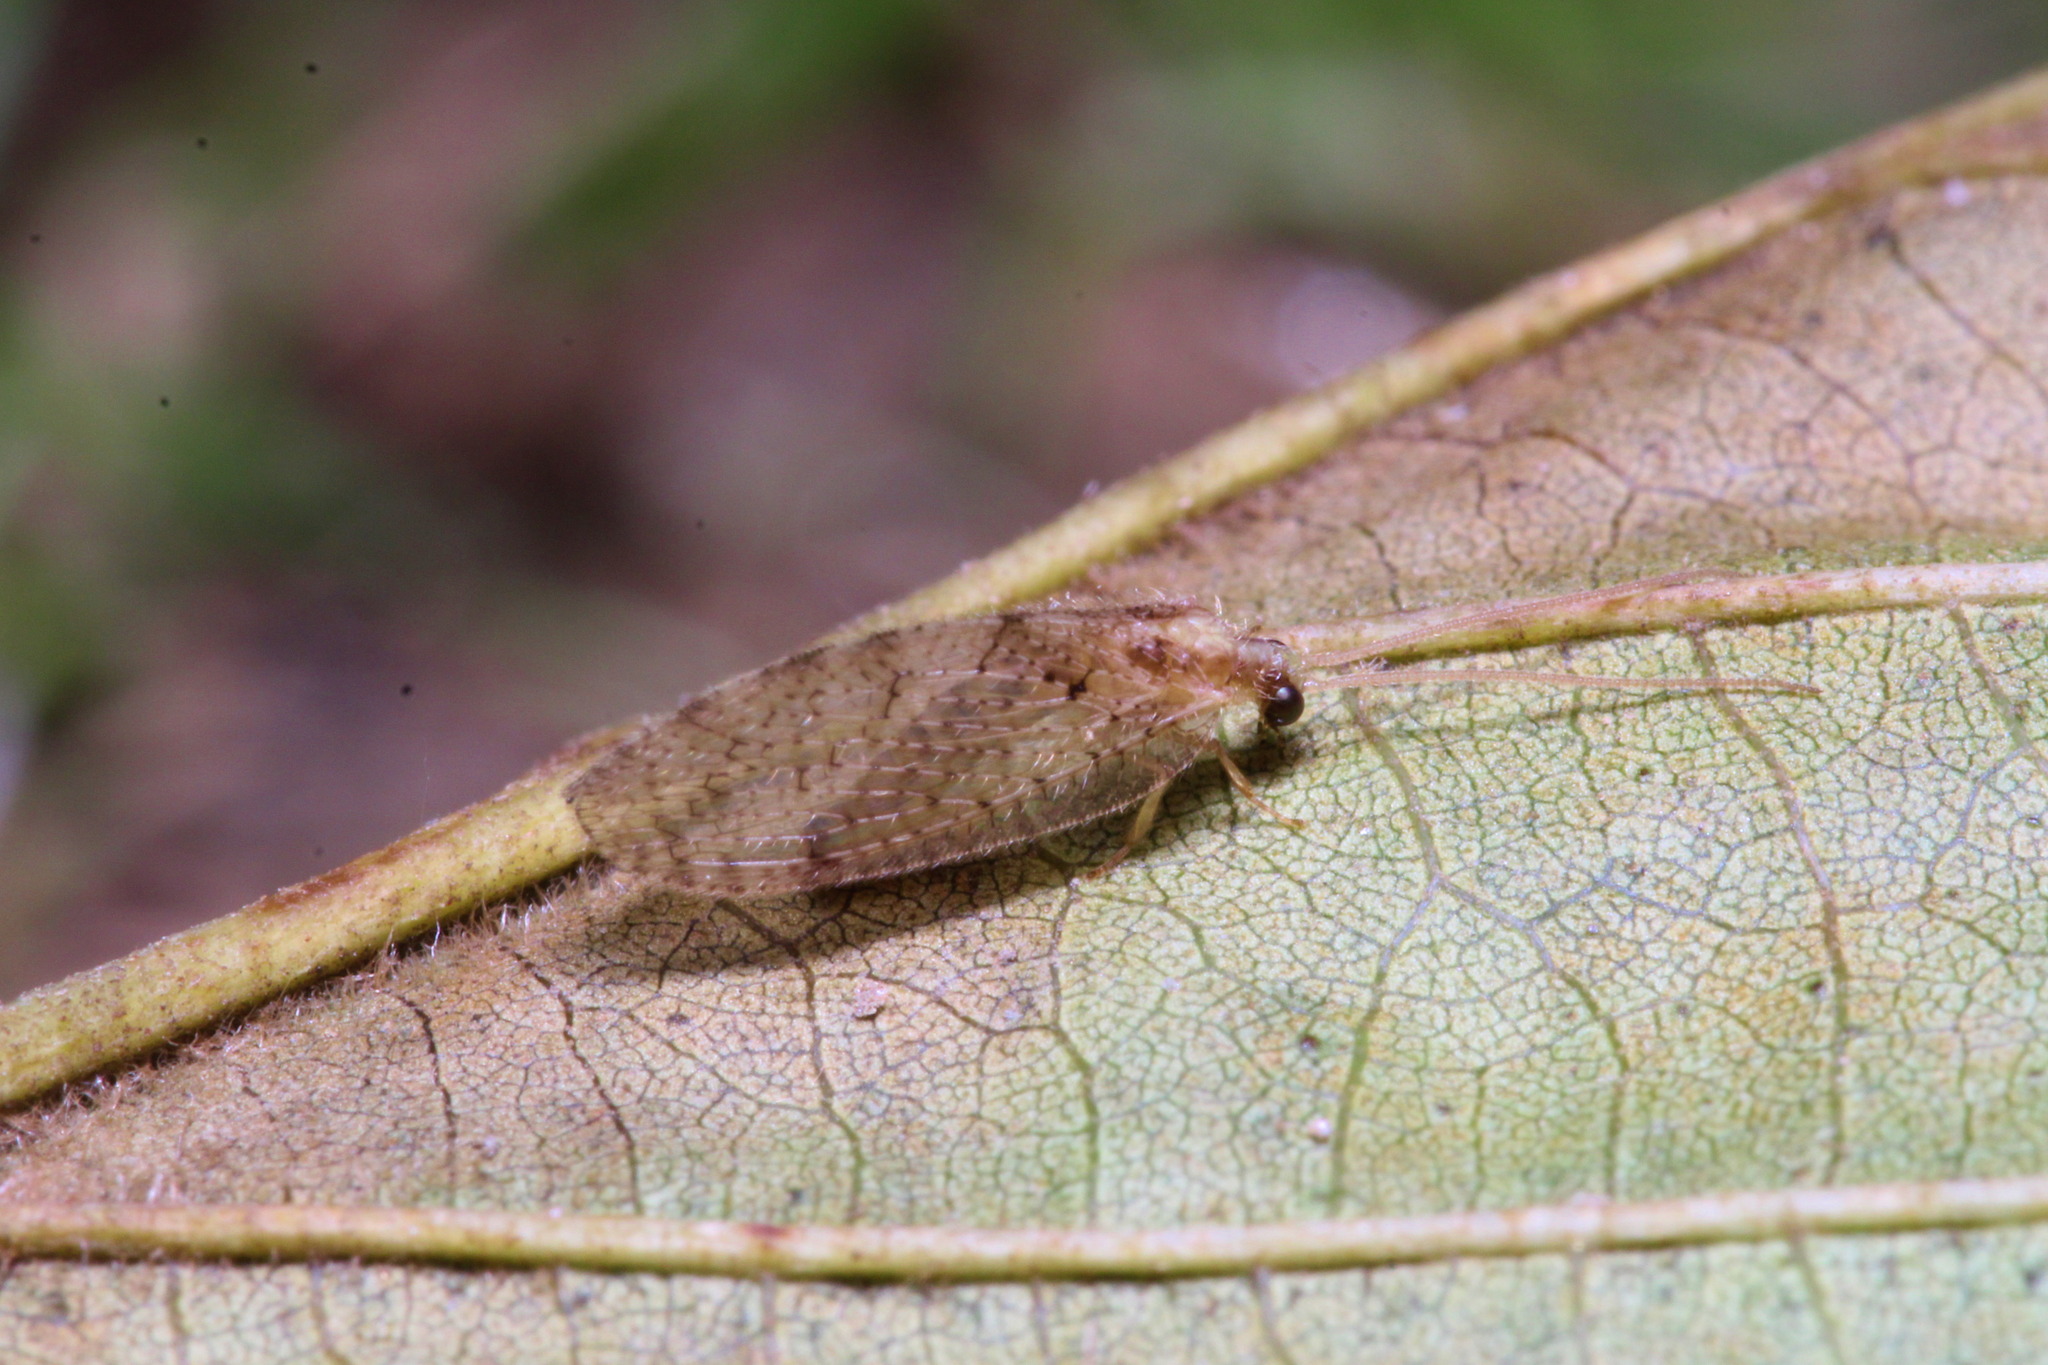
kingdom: Animalia
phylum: Arthropoda
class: Insecta
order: Neuroptera
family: Hemerobiidae
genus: Hemerobius
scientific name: Hemerobius humulinus
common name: Humulin brown lacewing
